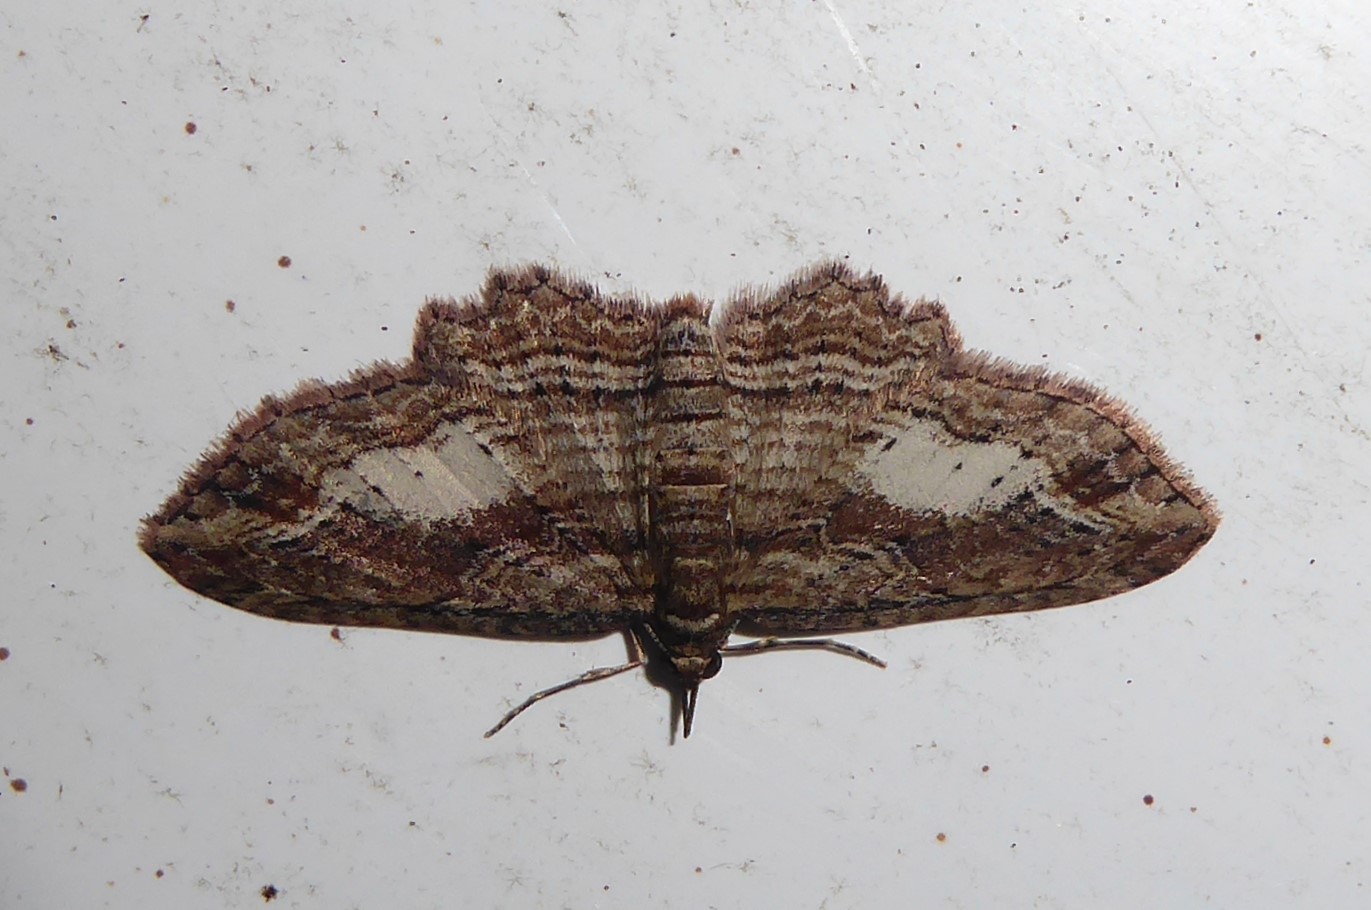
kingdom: Animalia
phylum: Arthropoda
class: Insecta
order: Lepidoptera
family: Geometridae
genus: Chloroclystis
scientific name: Chloroclystis filata
